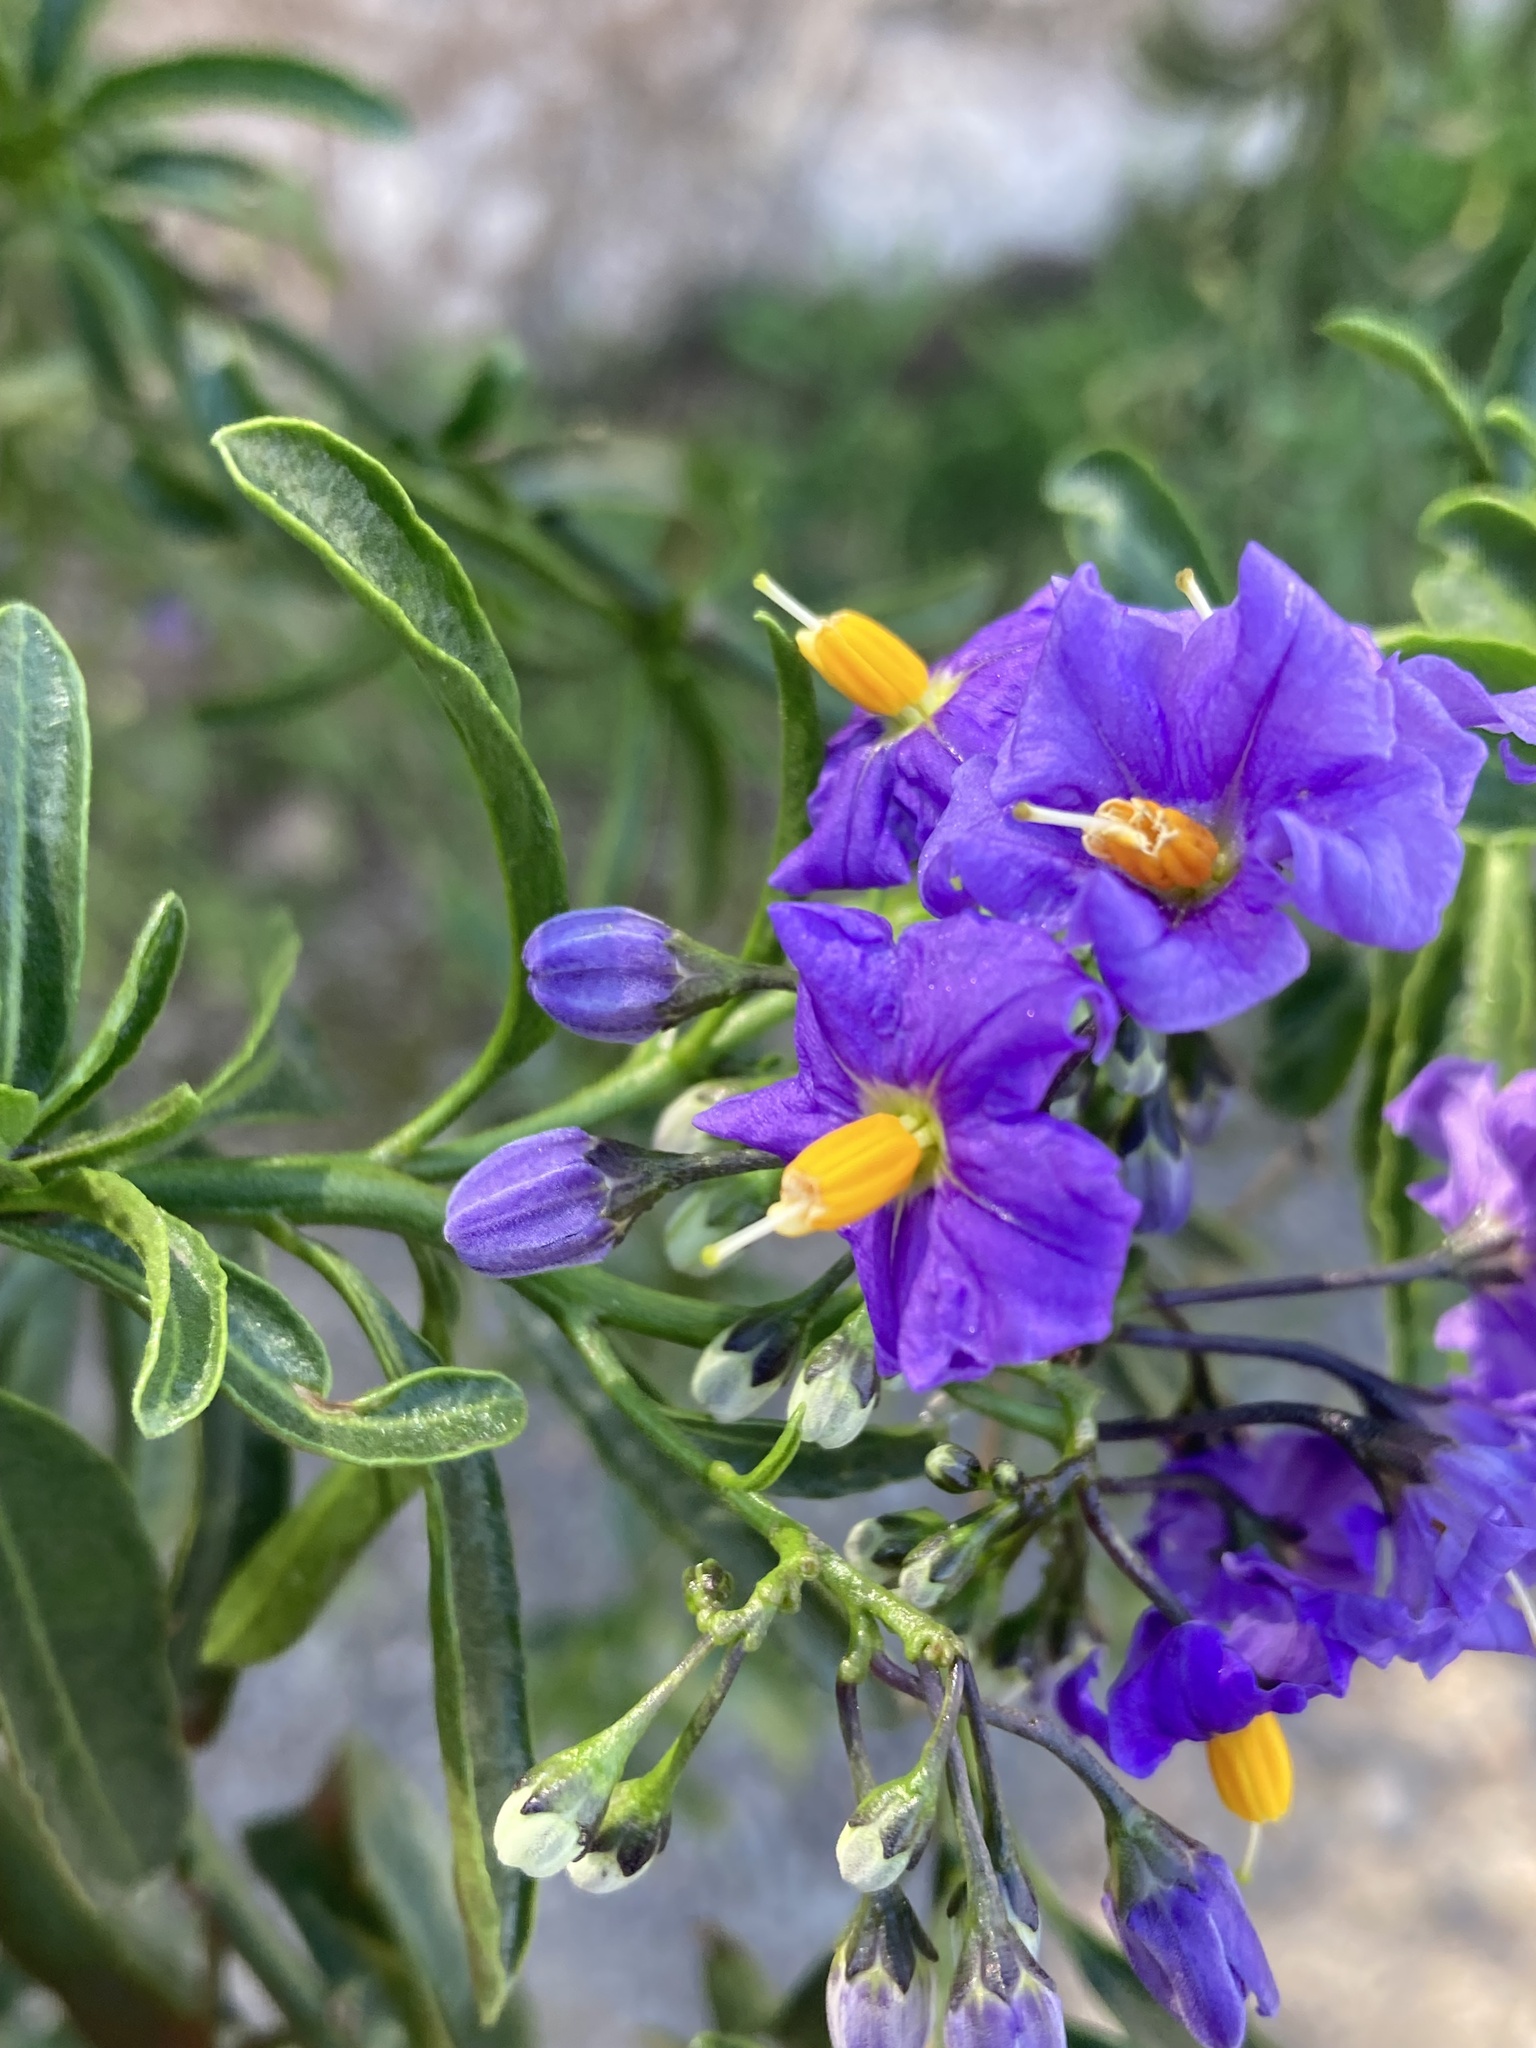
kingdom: Plantae
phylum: Tracheophyta
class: Magnoliopsida
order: Solanales
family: Solanaceae
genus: Solanum
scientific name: Solanum crispum
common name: Chilean nightshade
